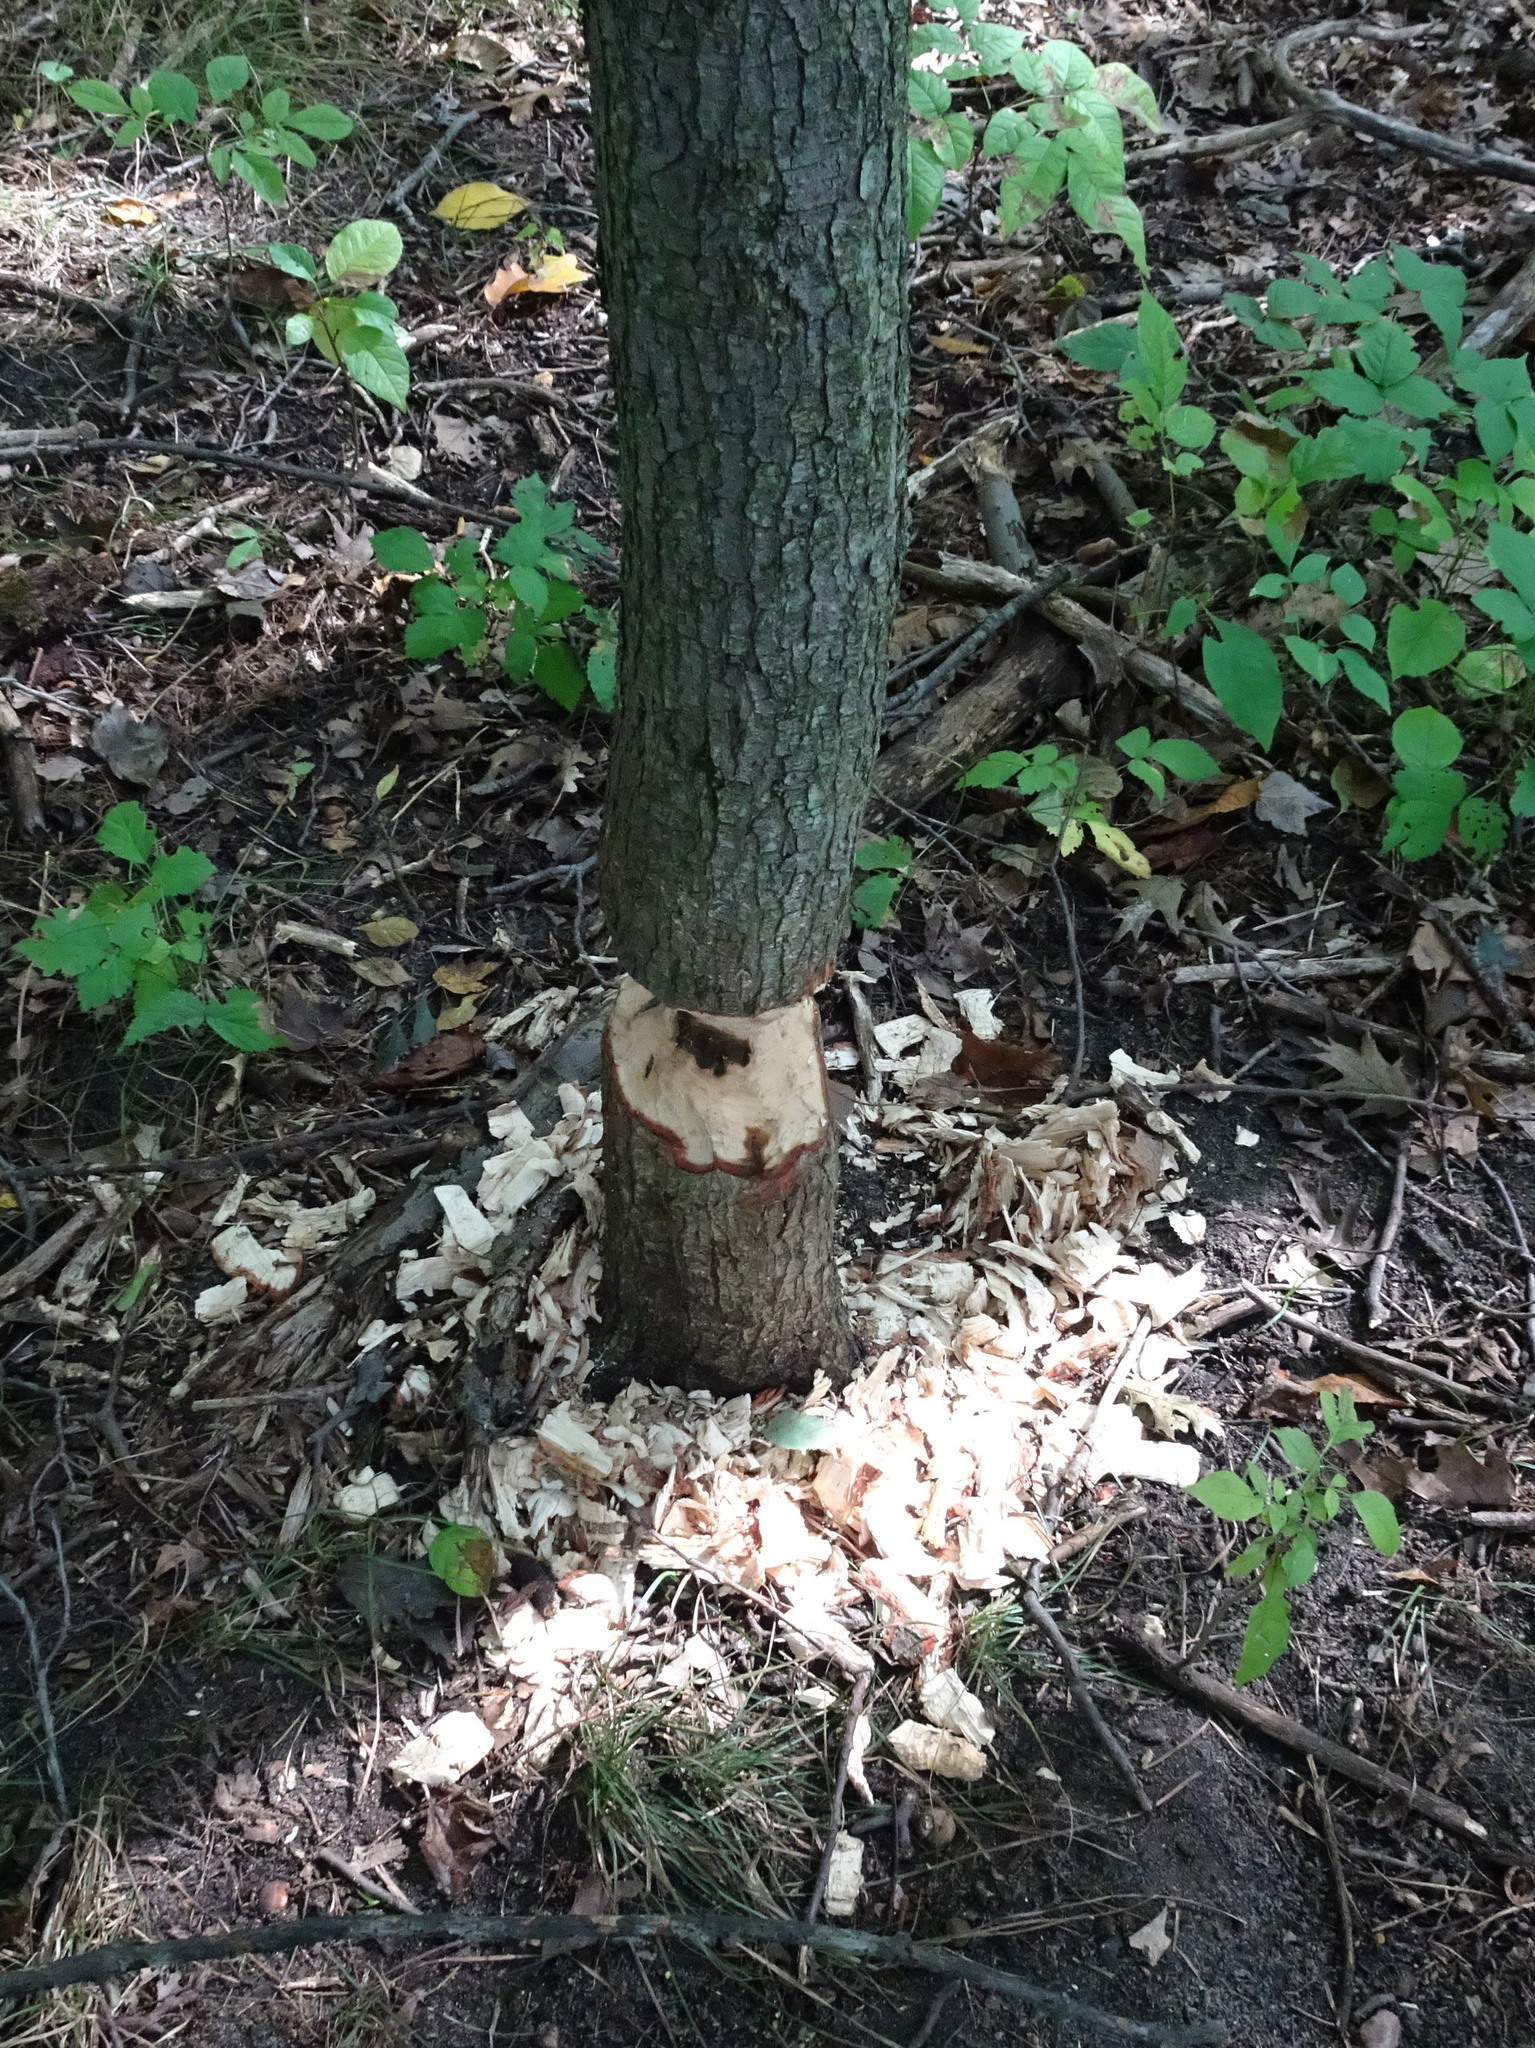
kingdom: Animalia
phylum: Chordata
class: Mammalia
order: Rodentia
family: Castoridae
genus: Castor
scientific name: Castor canadensis
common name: American beaver
